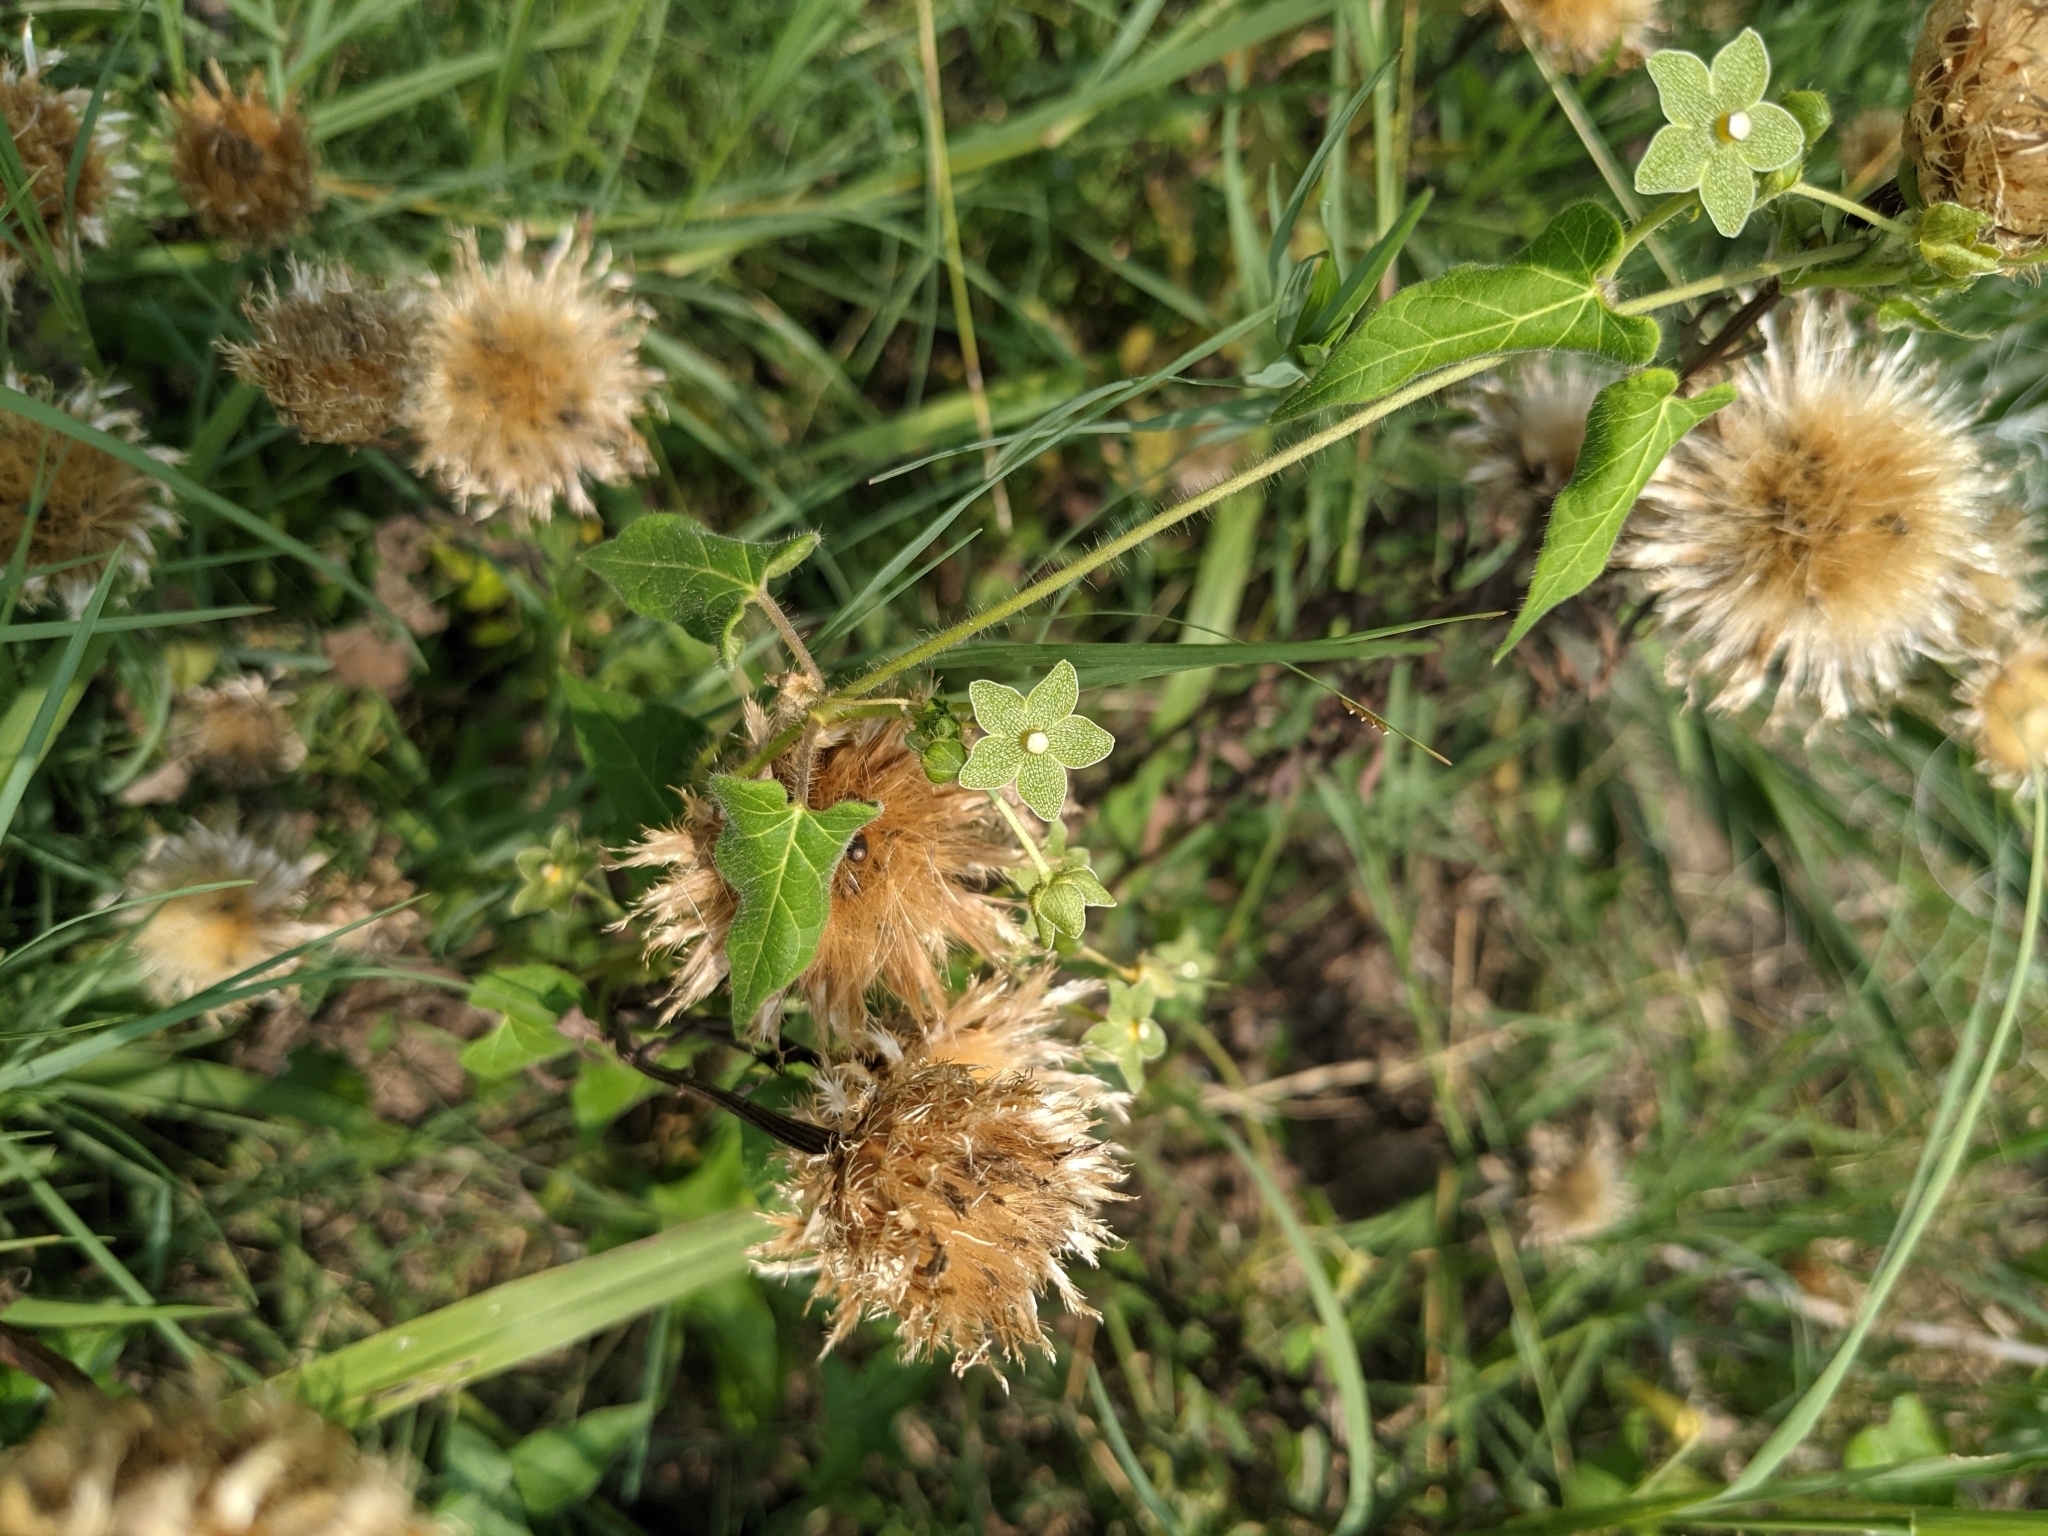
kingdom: Plantae
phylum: Tracheophyta
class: Magnoliopsida
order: Gentianales
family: Apocynaceae
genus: Dictyanthus
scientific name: Dictyanthus reticulatus
